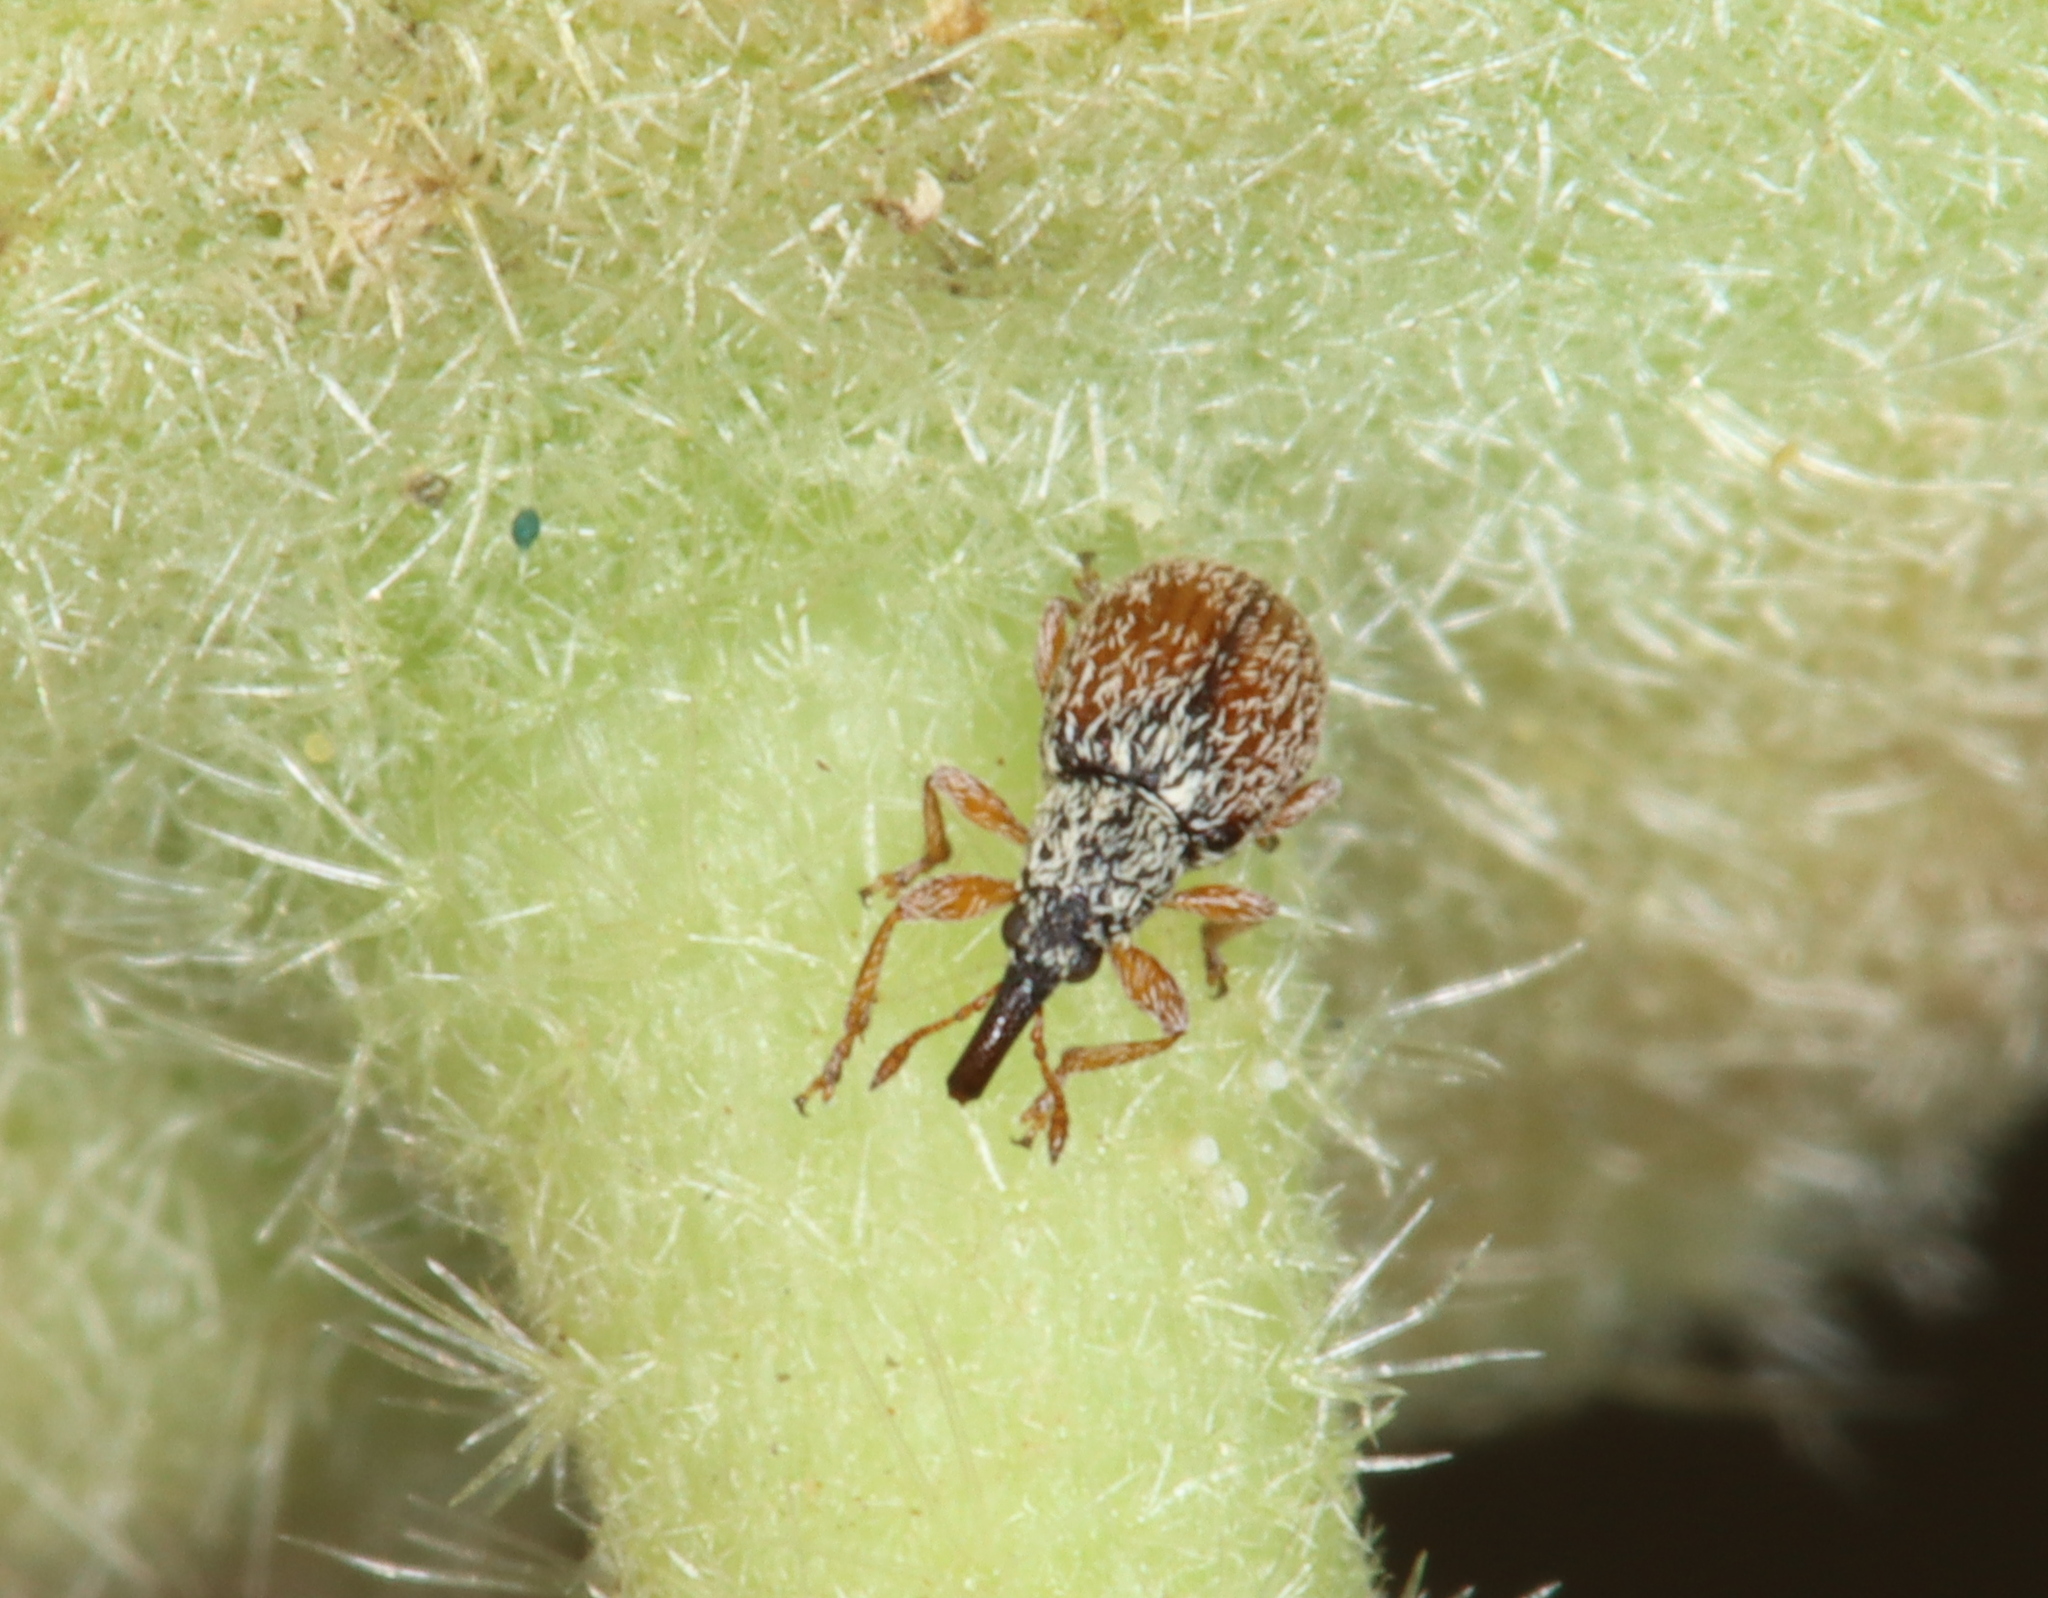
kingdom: Animalia
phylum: Arthropoda
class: Insecta
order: Coleoptera
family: Apionidae
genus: Malvapion
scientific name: Malvapion malvae
